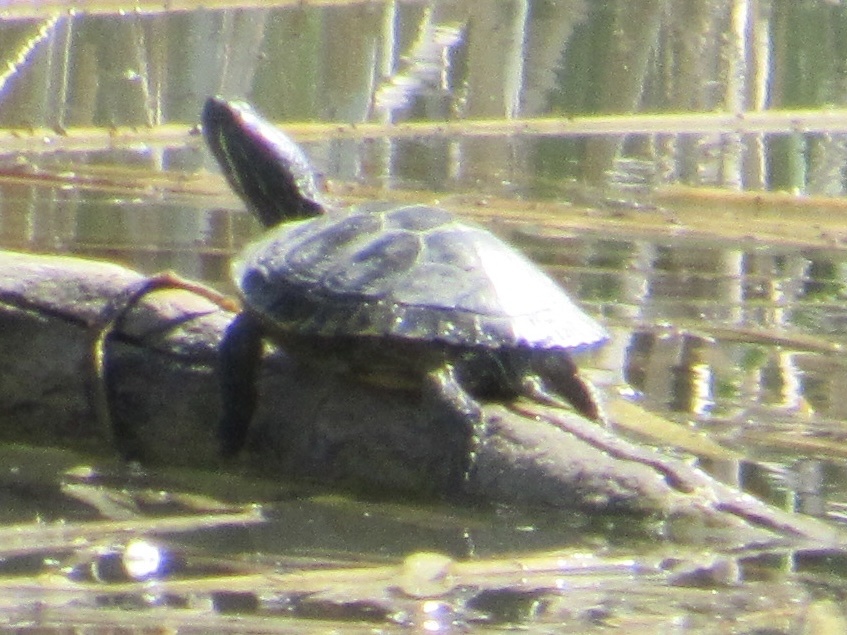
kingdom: Animalia
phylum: Chordata
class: Testudines
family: Emydidae
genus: Trachemys
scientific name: Trachemys scripta
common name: Slider
